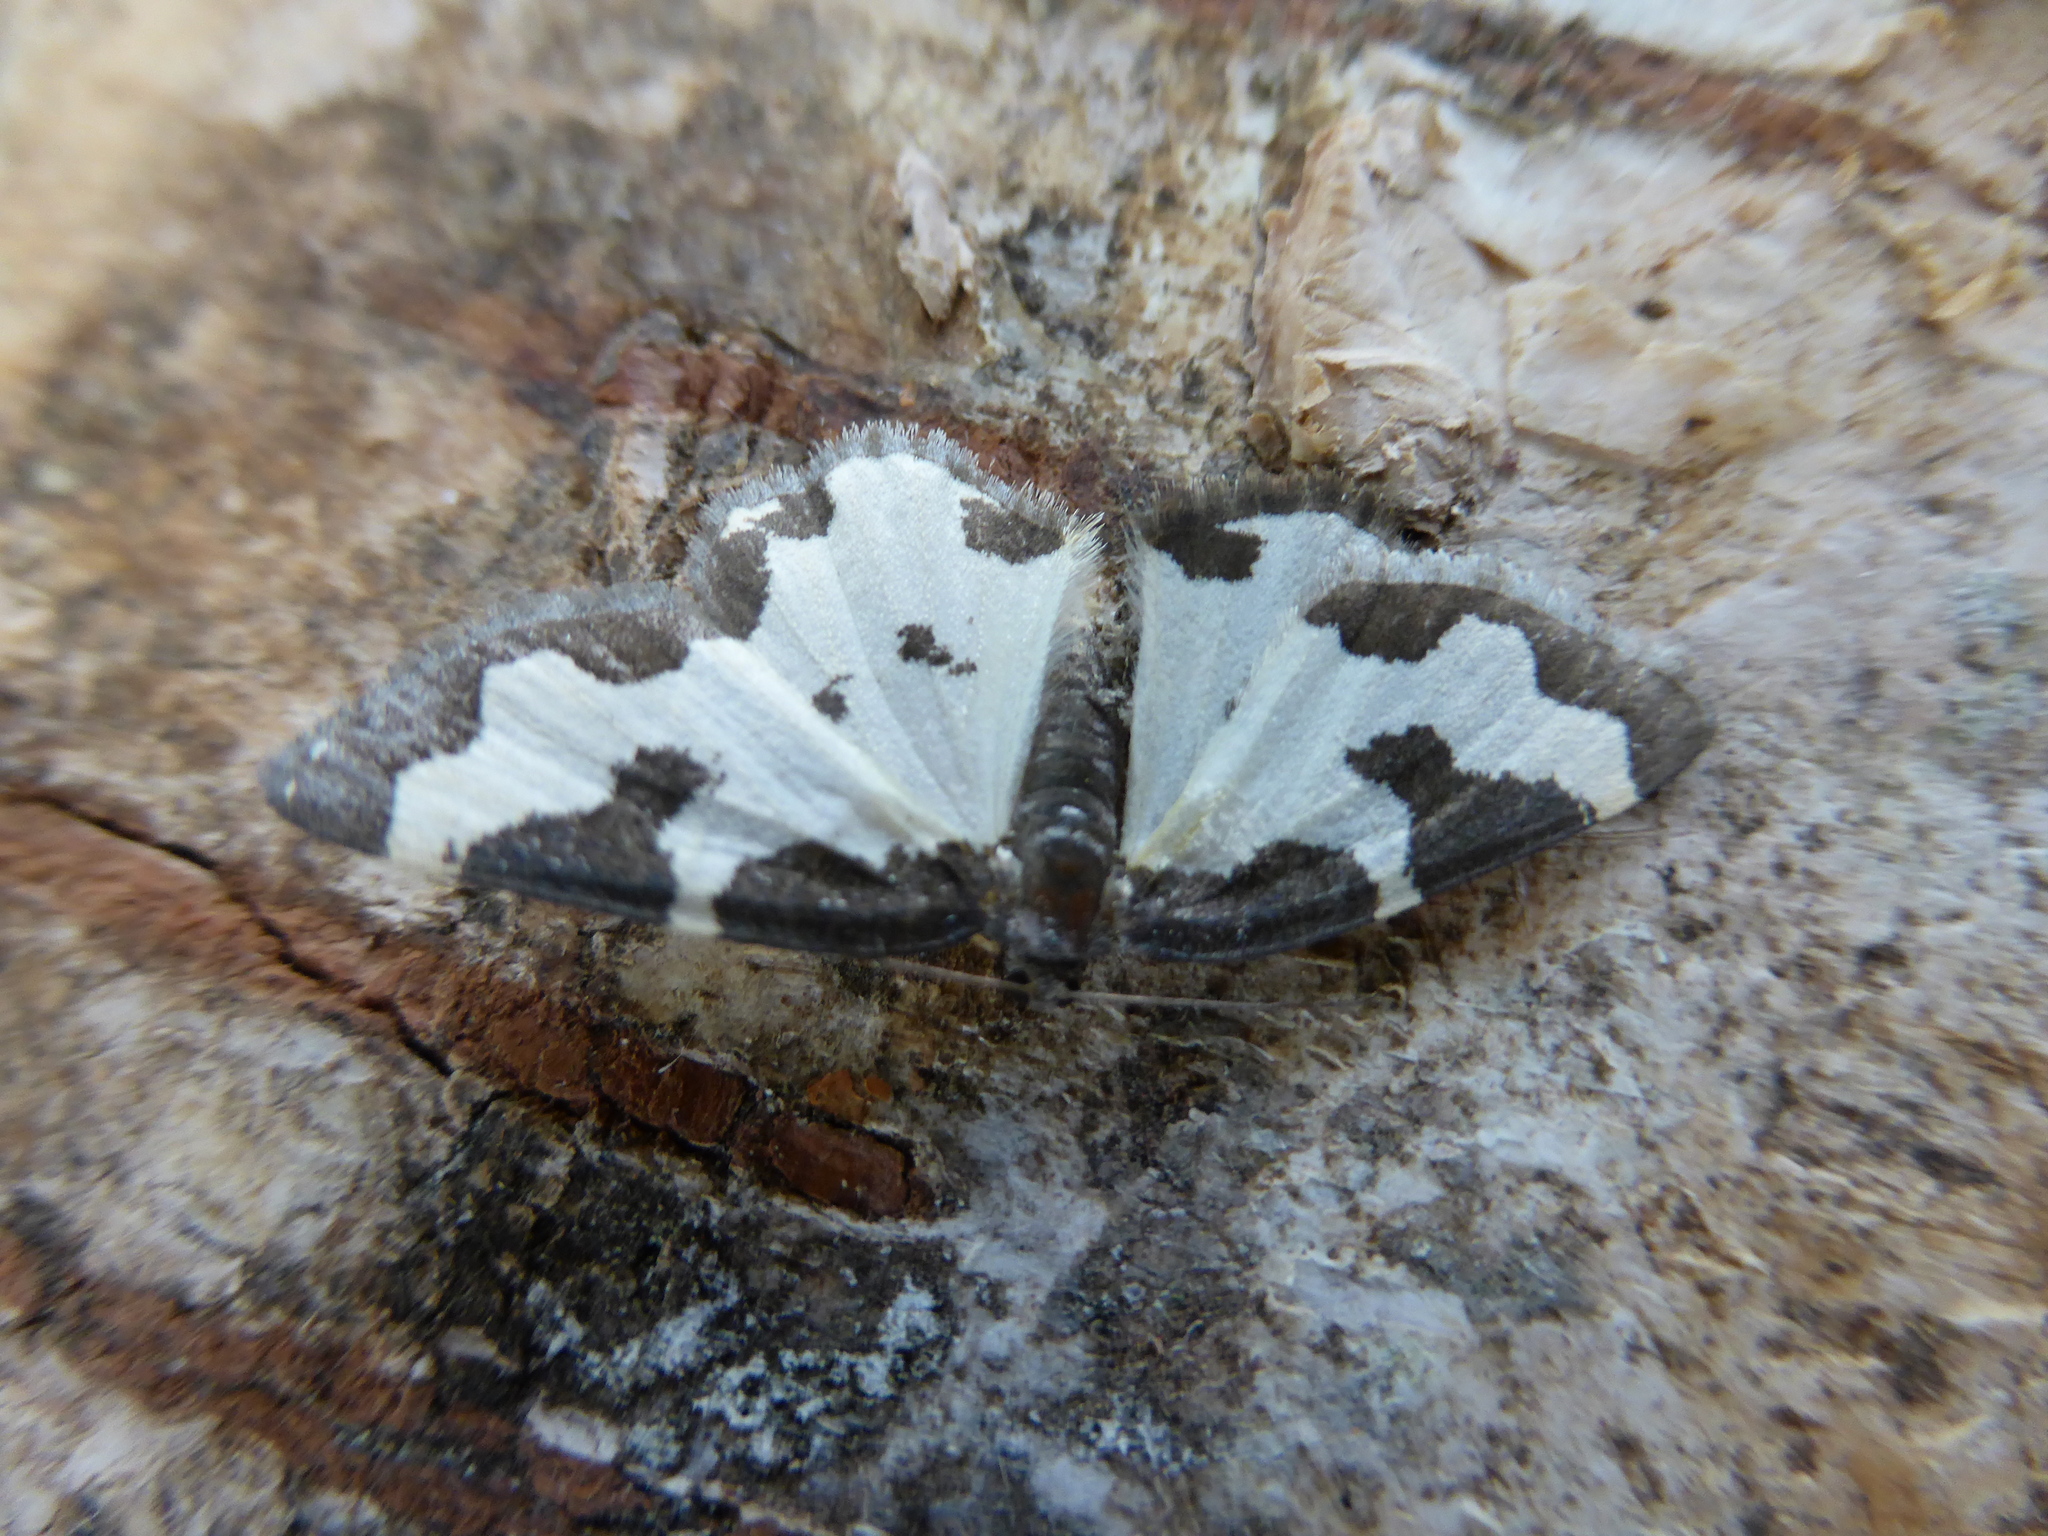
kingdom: Animalia
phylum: Arthropoda
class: Insecta
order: Lepidoptera
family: Geometridae
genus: Lomaspilis
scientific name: Lomaspilis marginata
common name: Clouded border
